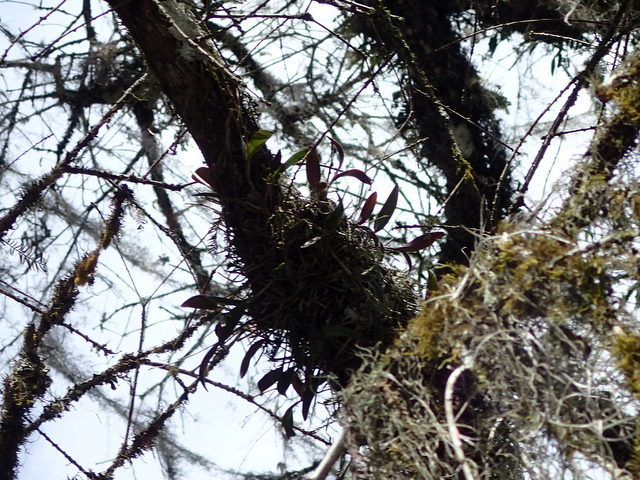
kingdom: Plantae
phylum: Tracheophyta
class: Liliopsida
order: Asparagales
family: Orchidaceae
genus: Epidendrum
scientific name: Epidendrum conopseum
